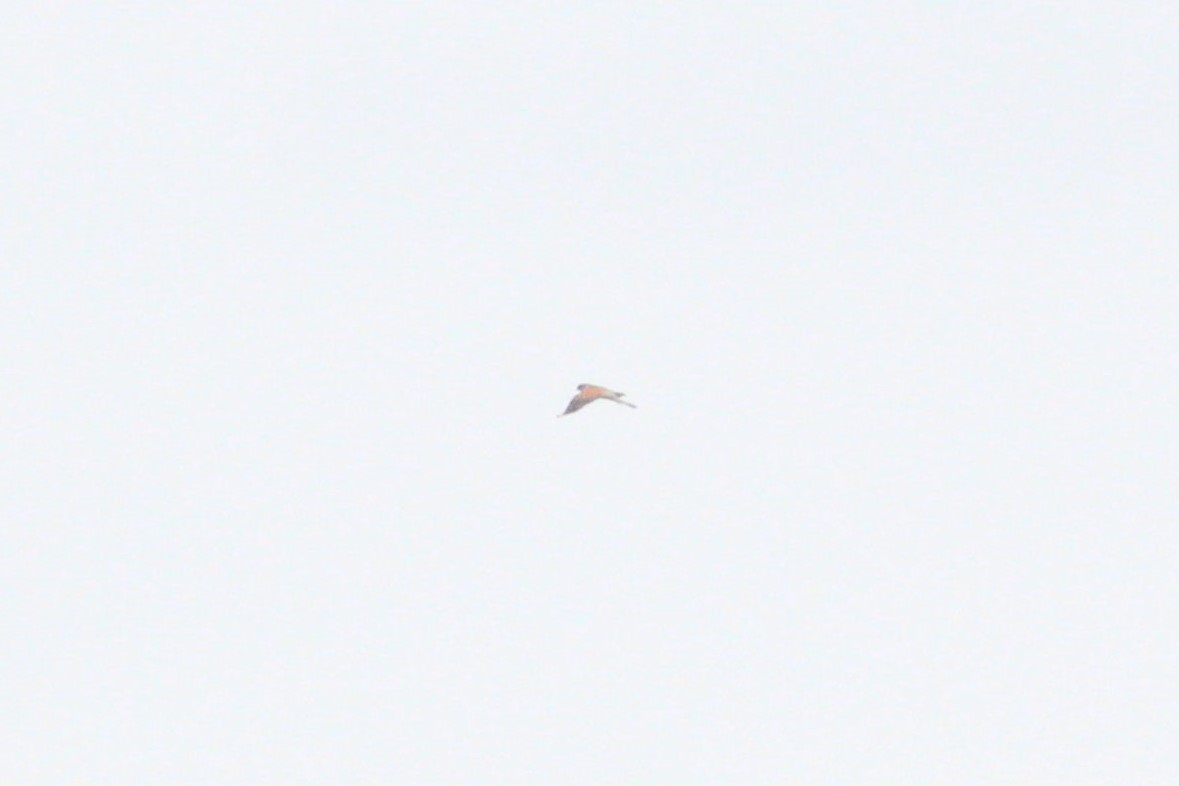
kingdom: Animalia
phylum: Chordata
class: Aves
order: Falconiformes
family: Falconidae
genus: Falco
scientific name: Falco tinnunculus
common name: Common kestrel
